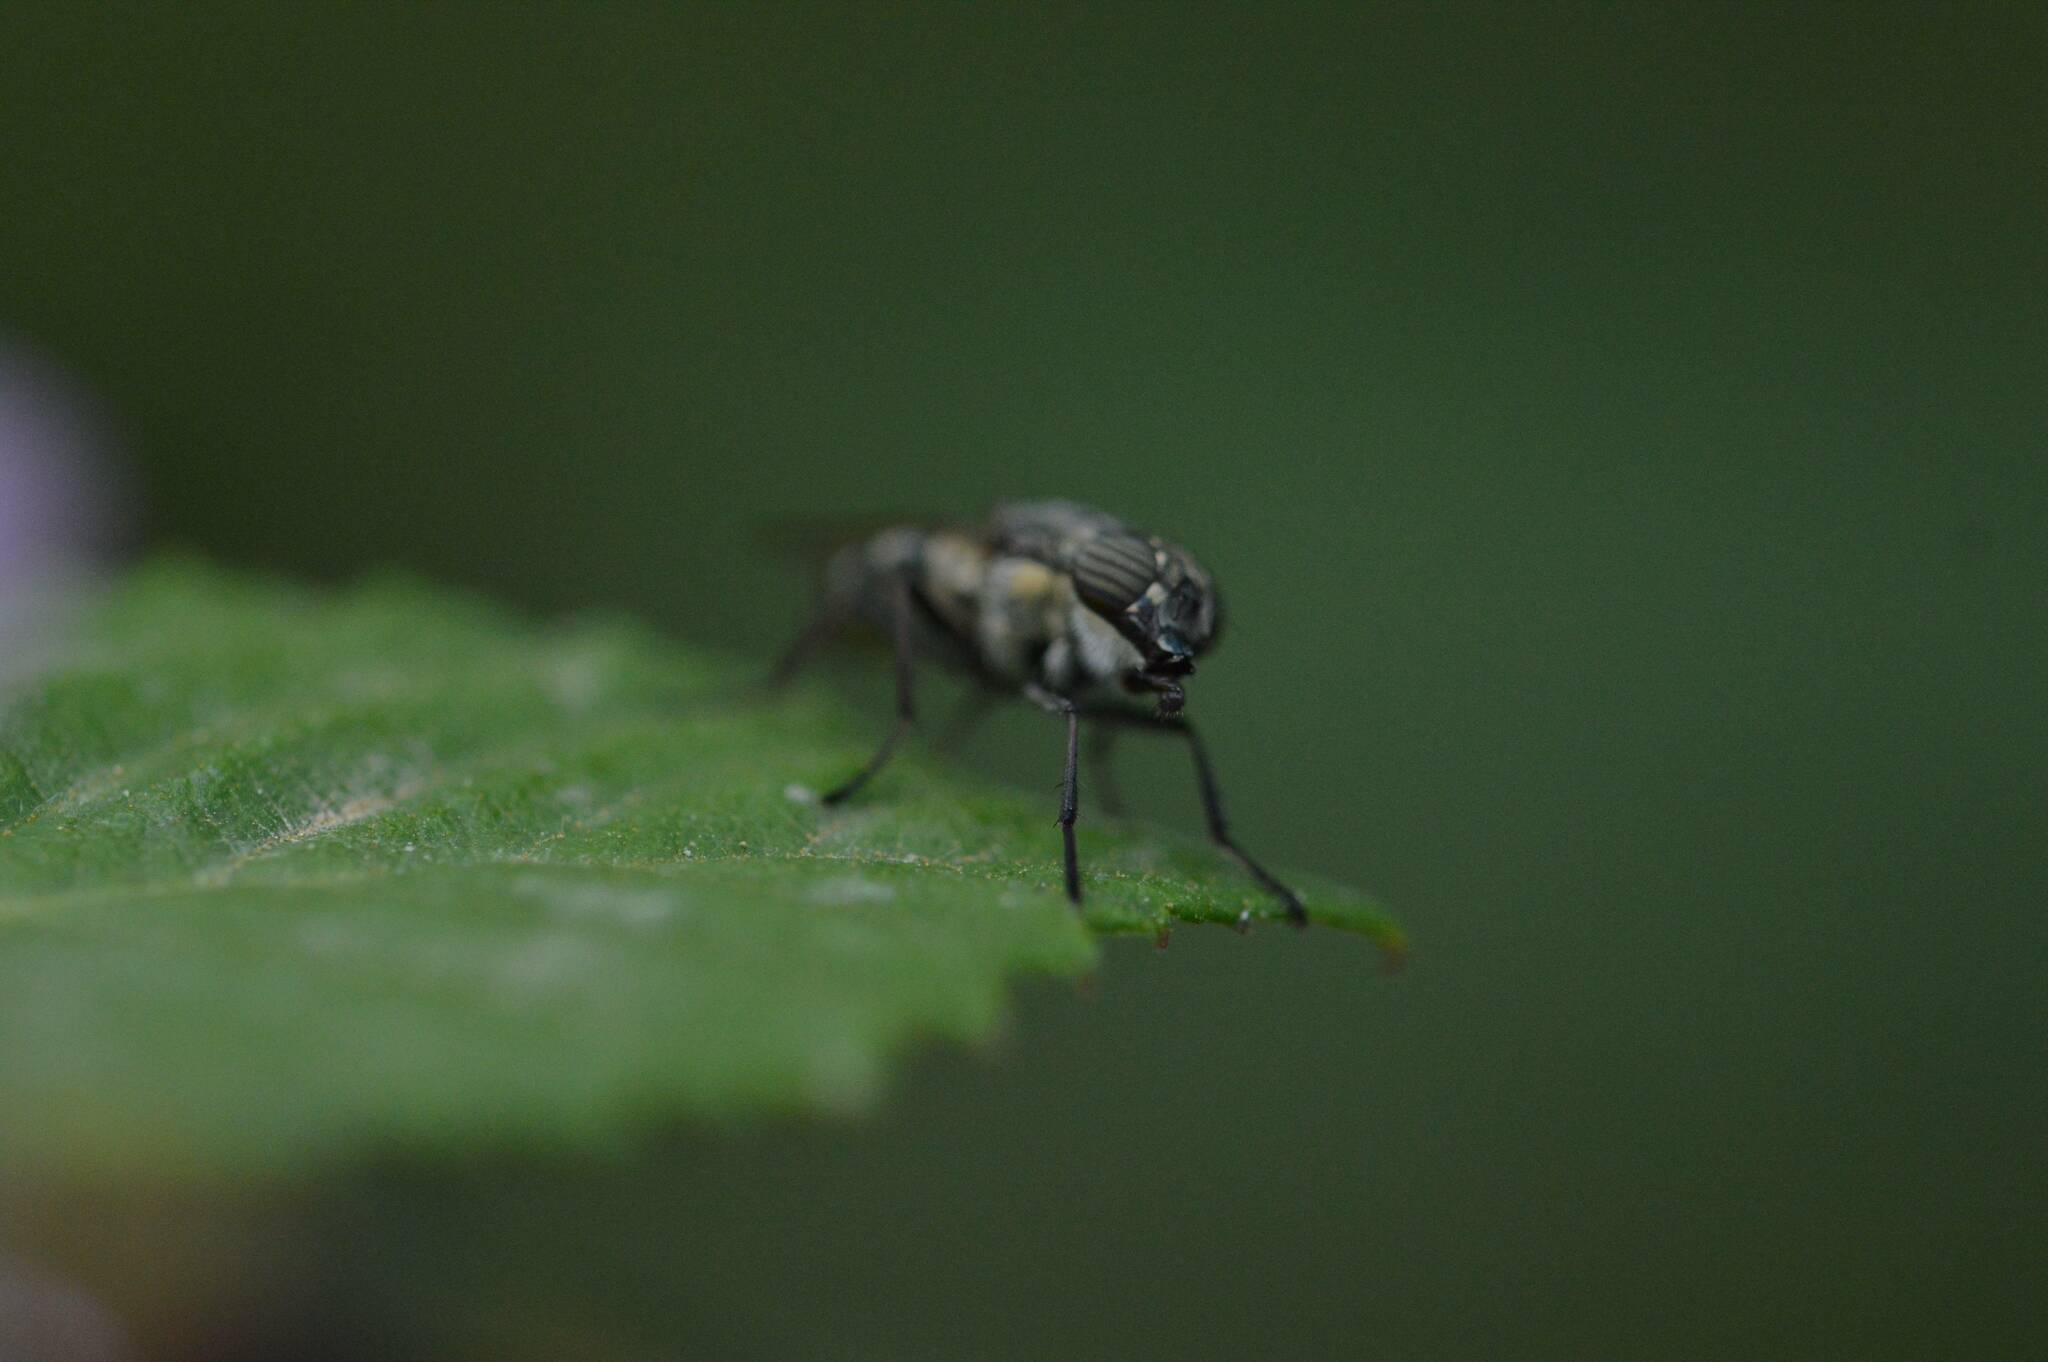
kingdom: Animalia
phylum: Arthropoda
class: Insecta
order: Diptera
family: Calliphoridae
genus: Stomorhina
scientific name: Stomorhina lunata
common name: Locust blowfly
